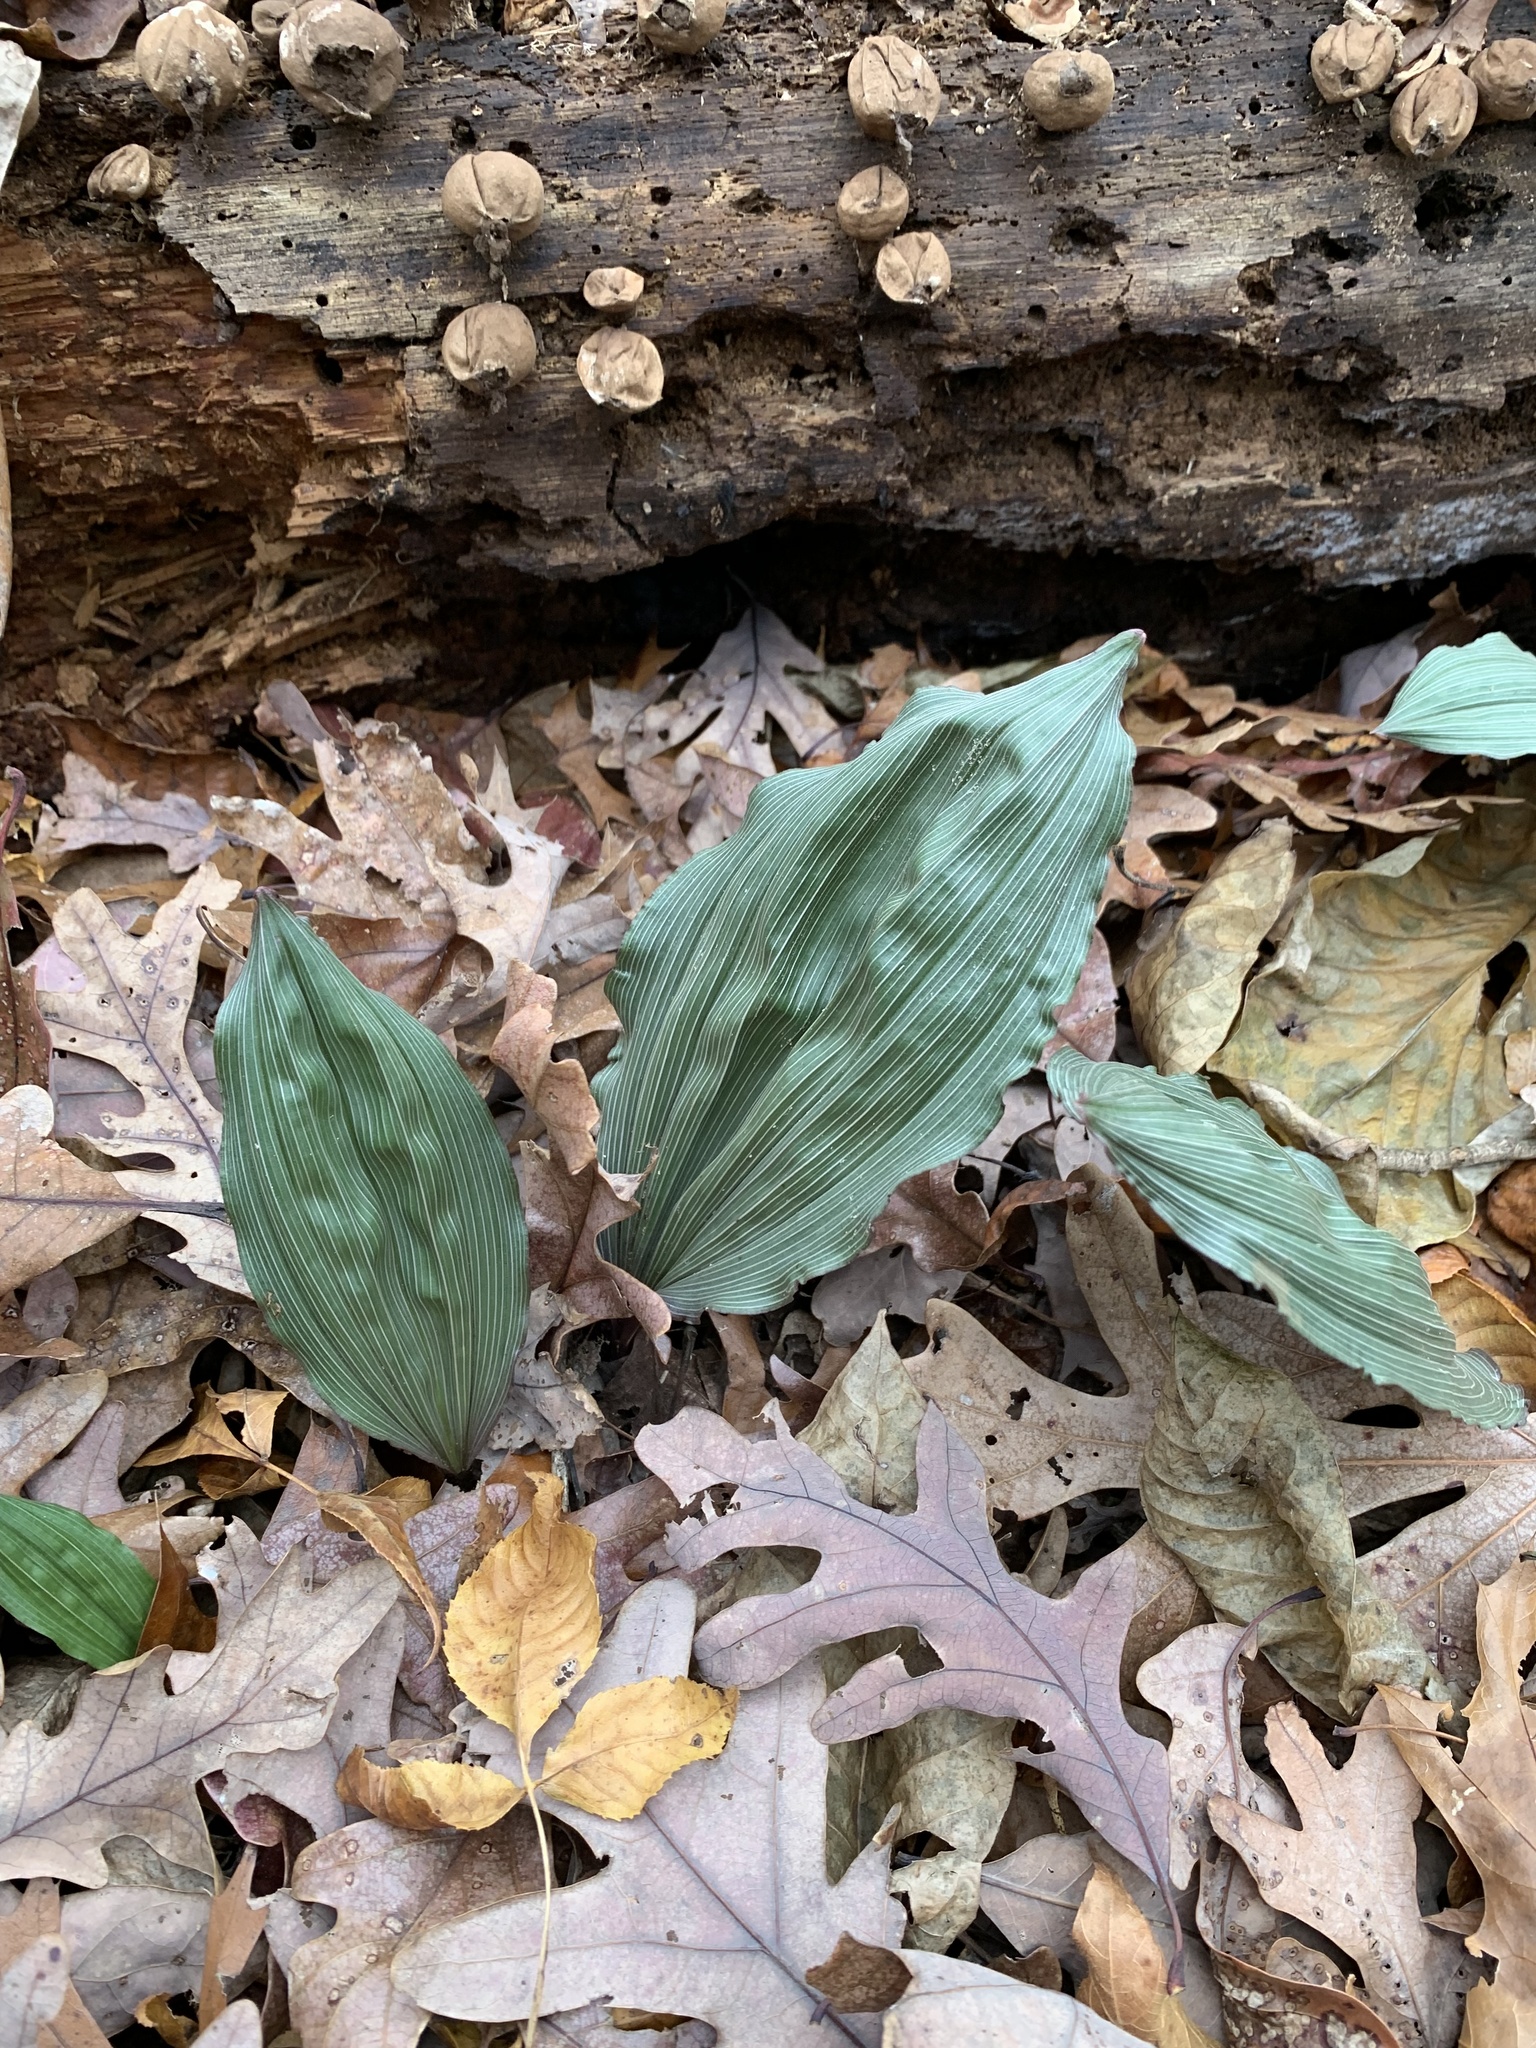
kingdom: Plantae
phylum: Tracheophyta
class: Liliopsida
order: Asparagales
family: Orchidaceae
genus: Aplectrum
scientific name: Aplectrum hyemale
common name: Adam-and-eve
